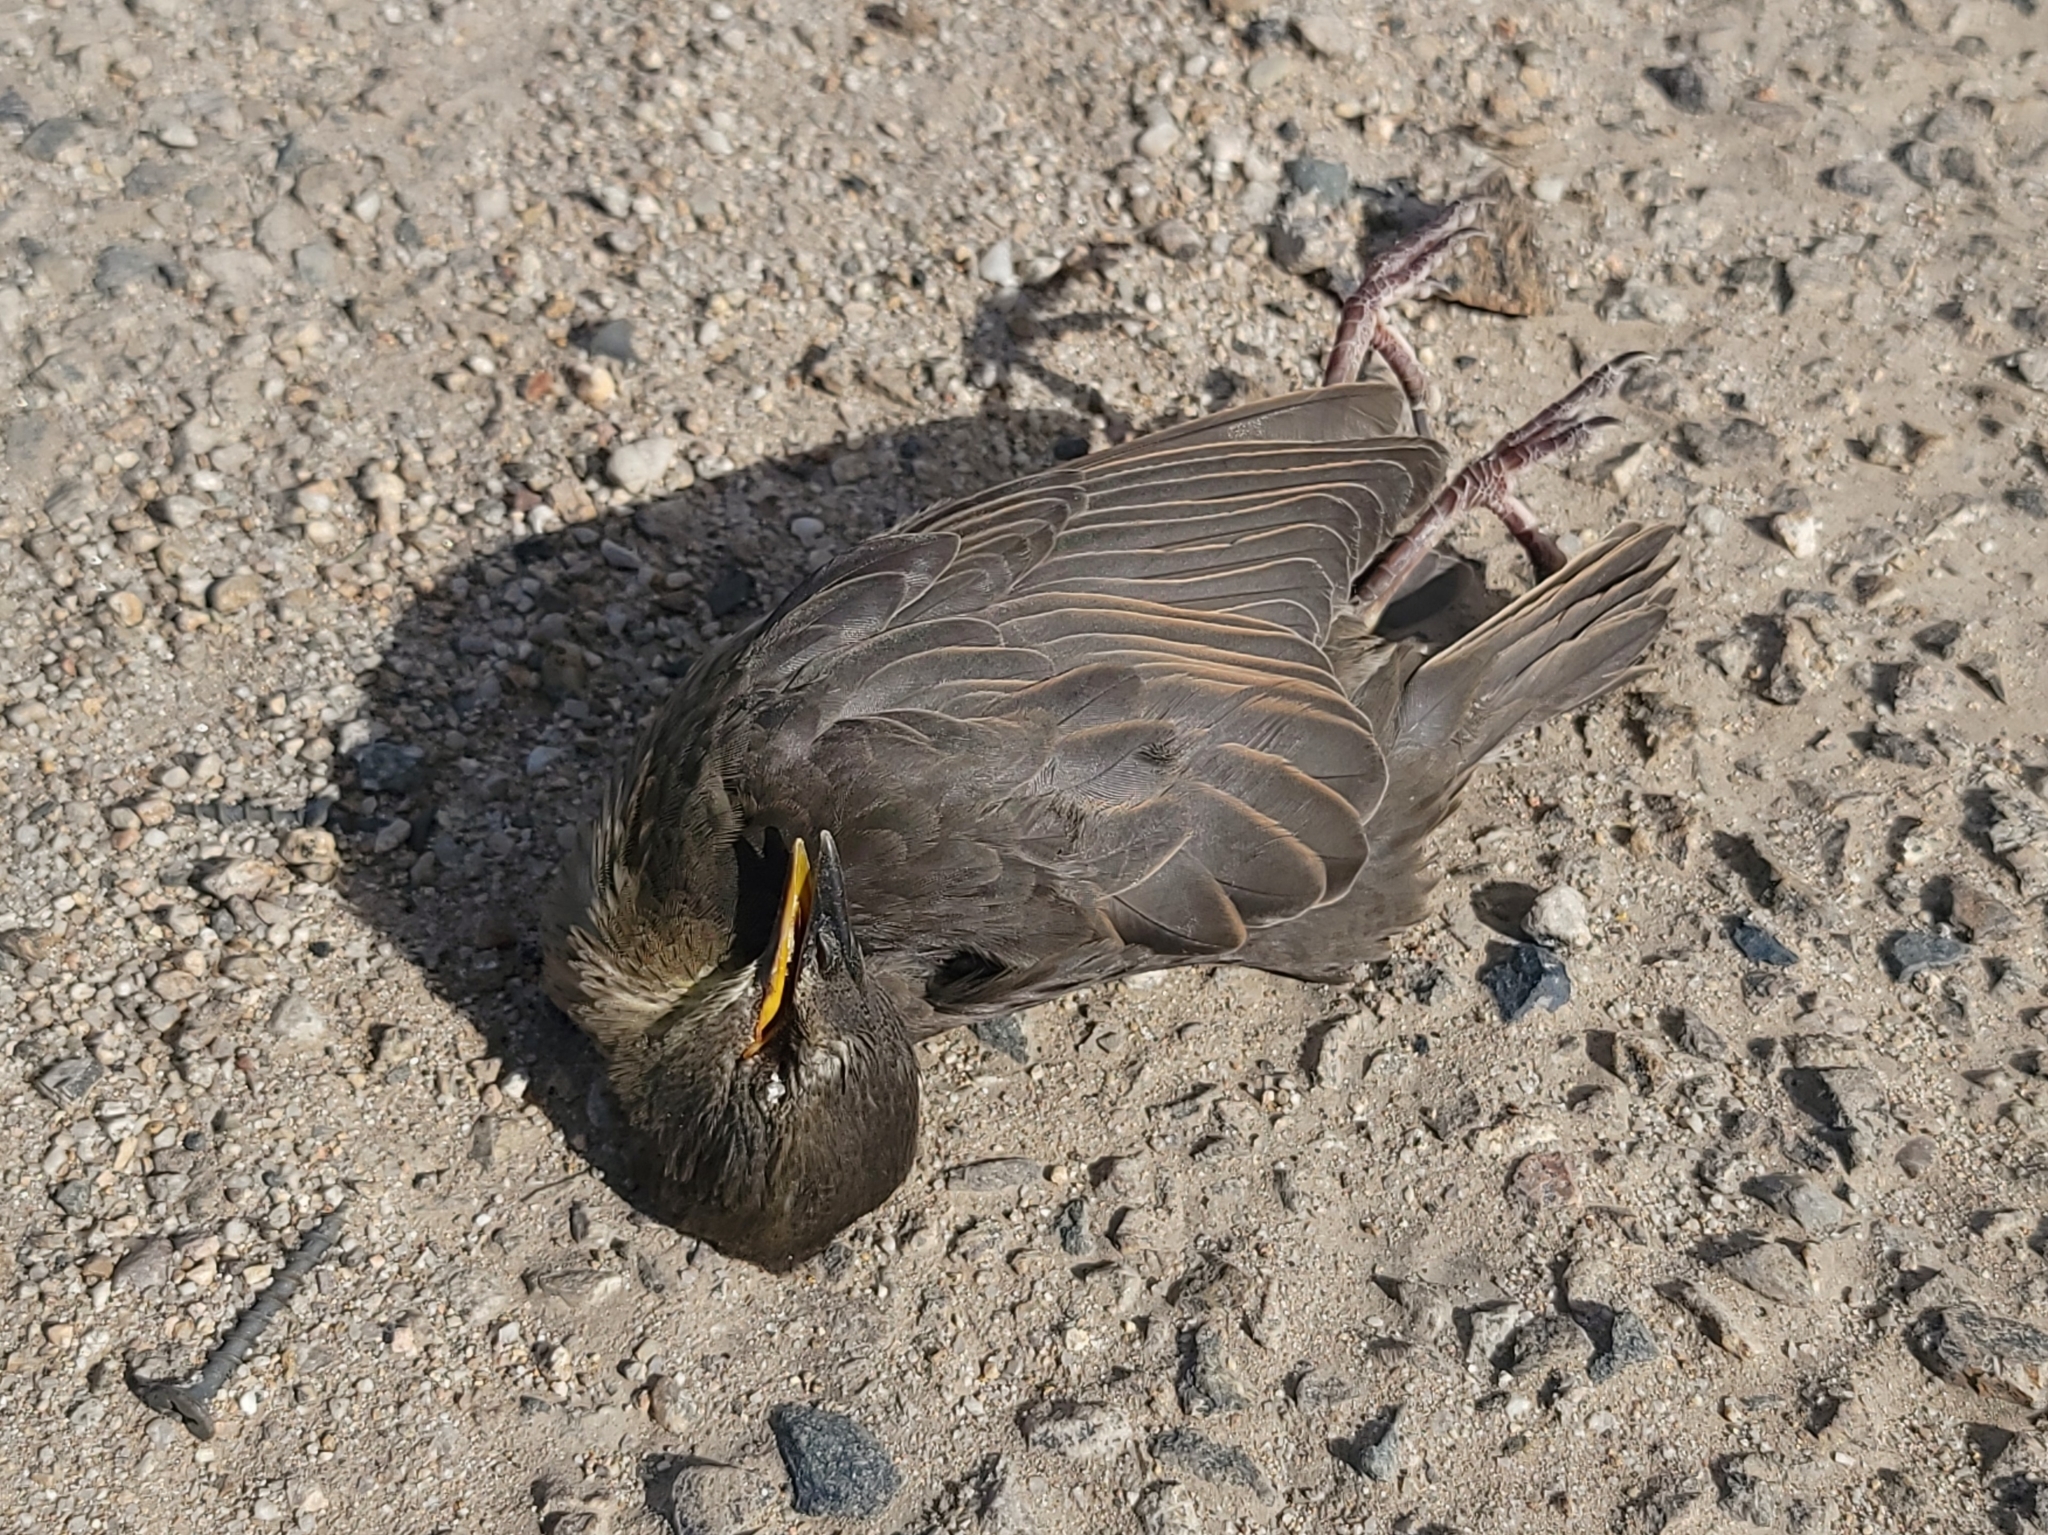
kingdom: Animalia
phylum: Chordata
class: Aves
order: Passeriformes
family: Sturnidae
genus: Sturnus
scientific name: Sturnus vulgaris
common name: Common starling
